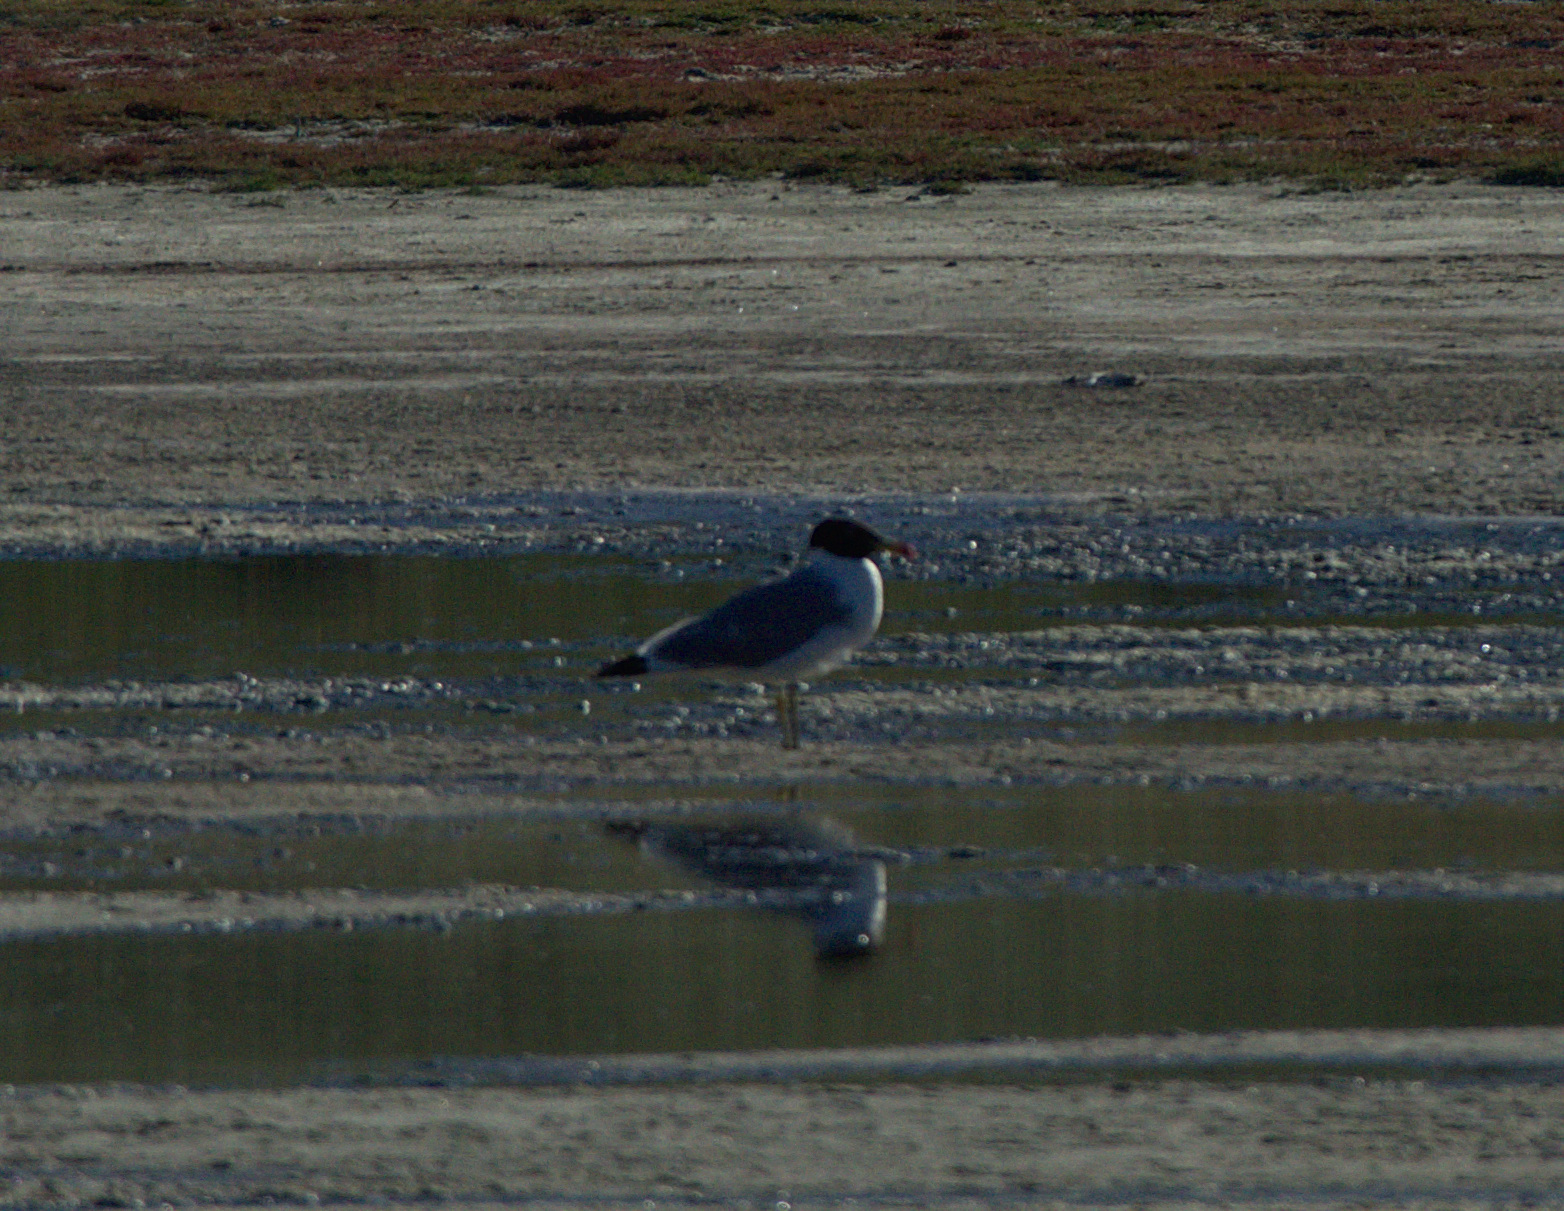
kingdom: Animalia
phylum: Chordata
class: Aves
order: Charadriiformes
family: Laridae
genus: Ichthyaetus
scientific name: Ichthyaetus ichthyaetus
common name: Pallas's gull
